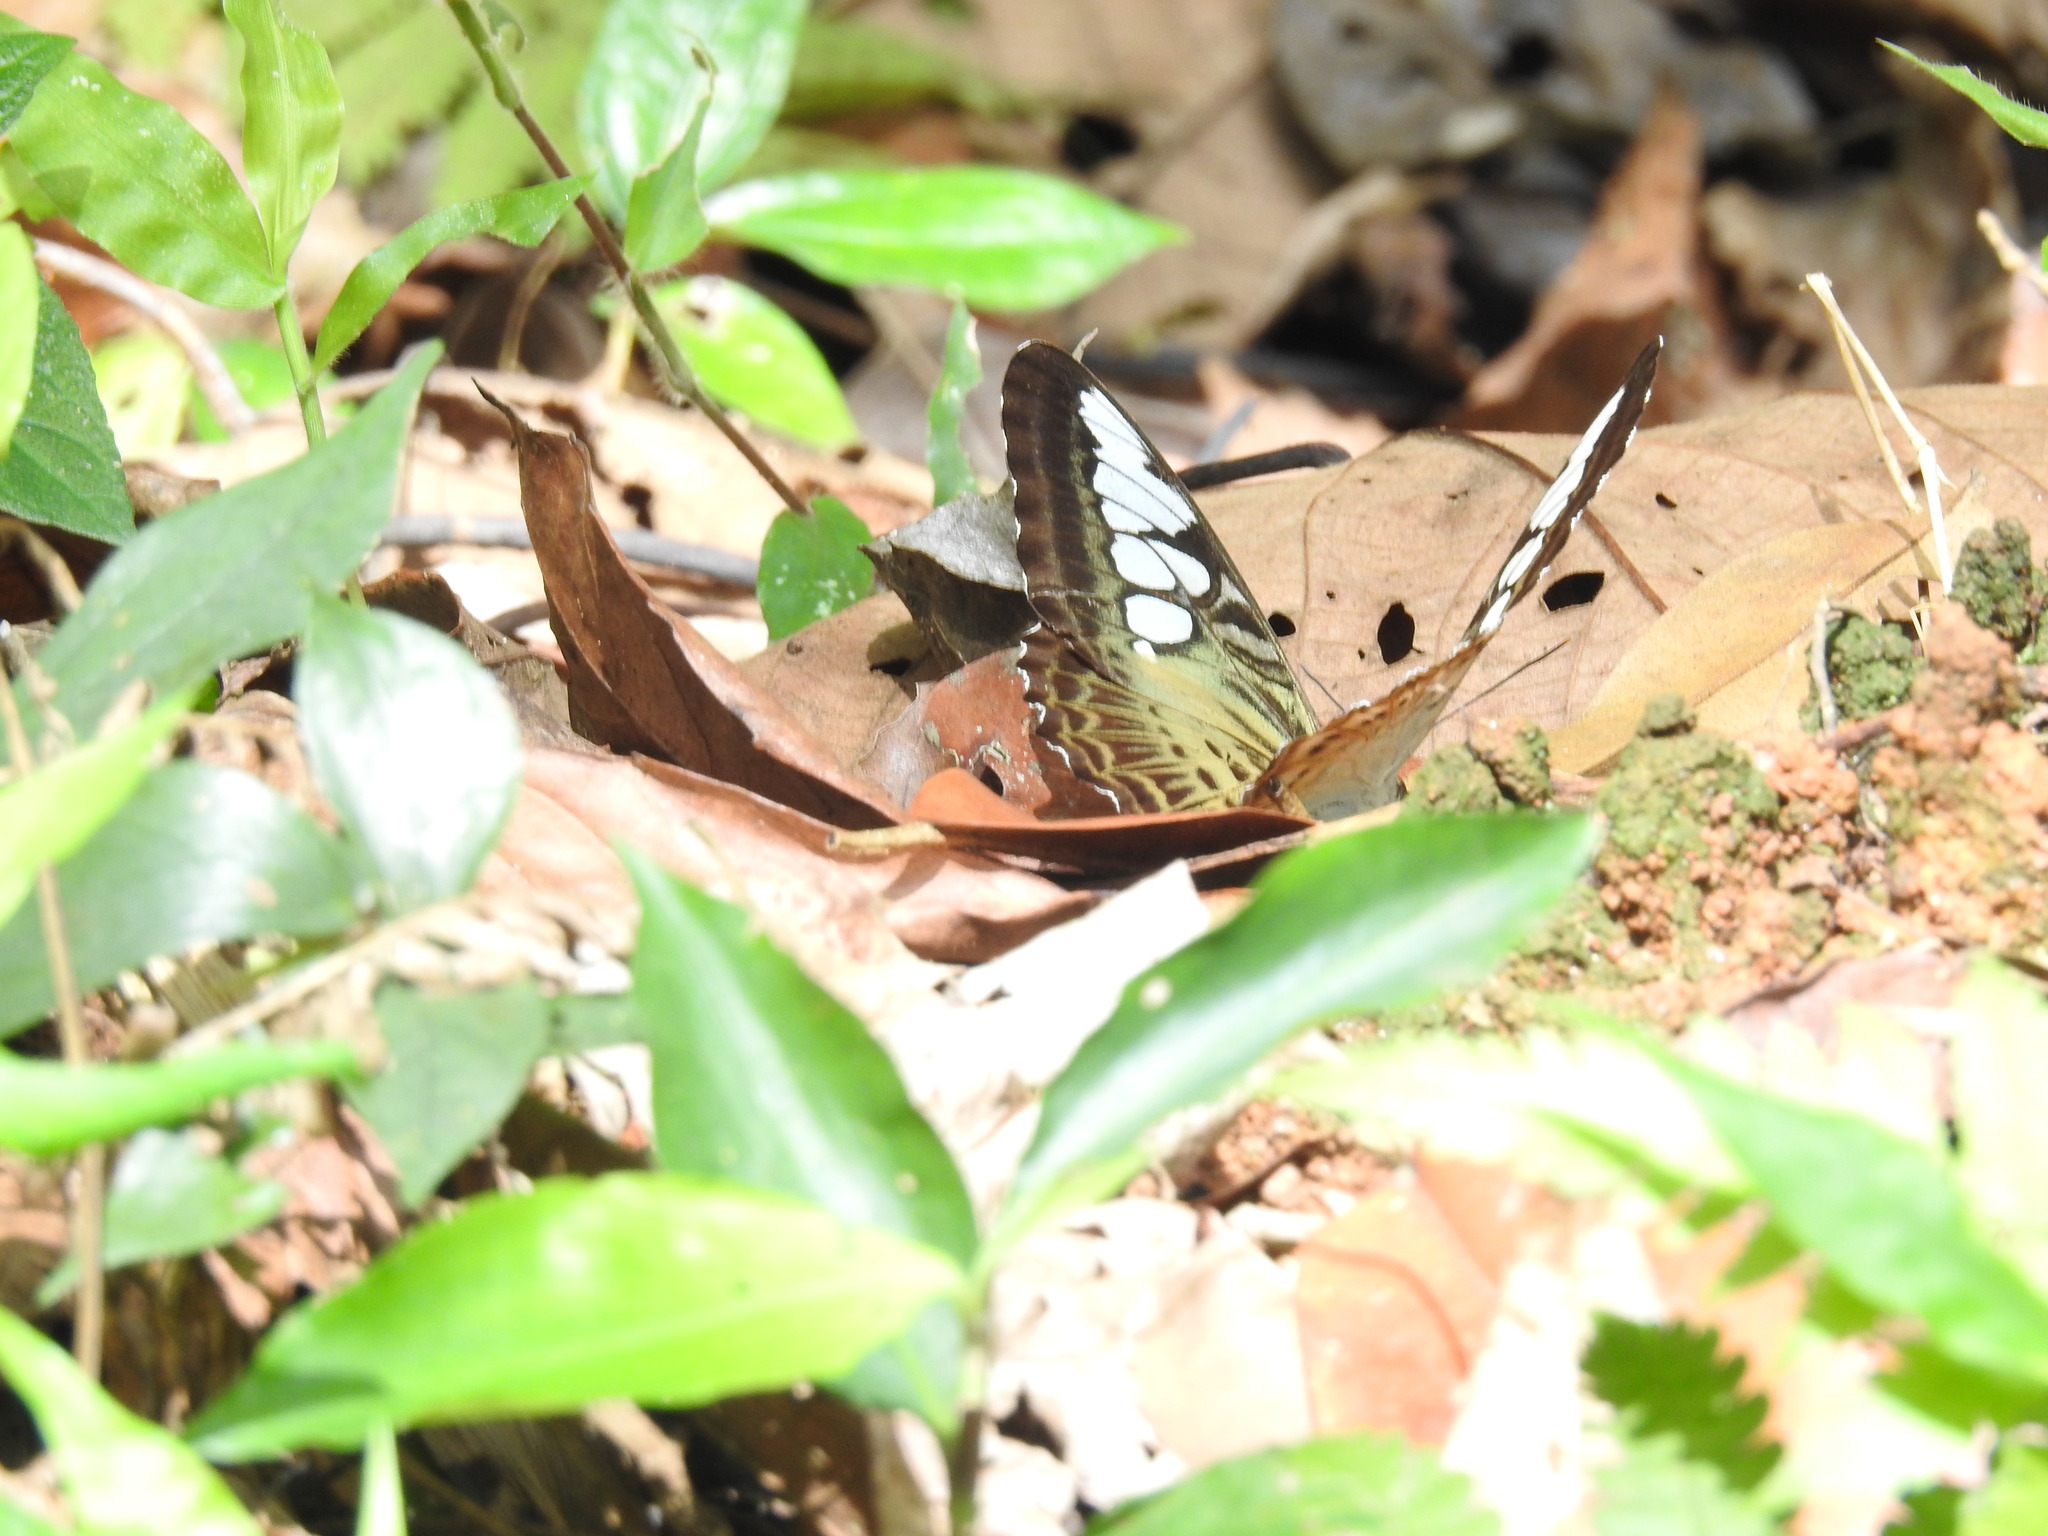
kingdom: Animalia
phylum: Arthropoda
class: Insecta
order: Lepidoptera
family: Nymphalidae
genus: Kallima
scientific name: Kallima sylvia
